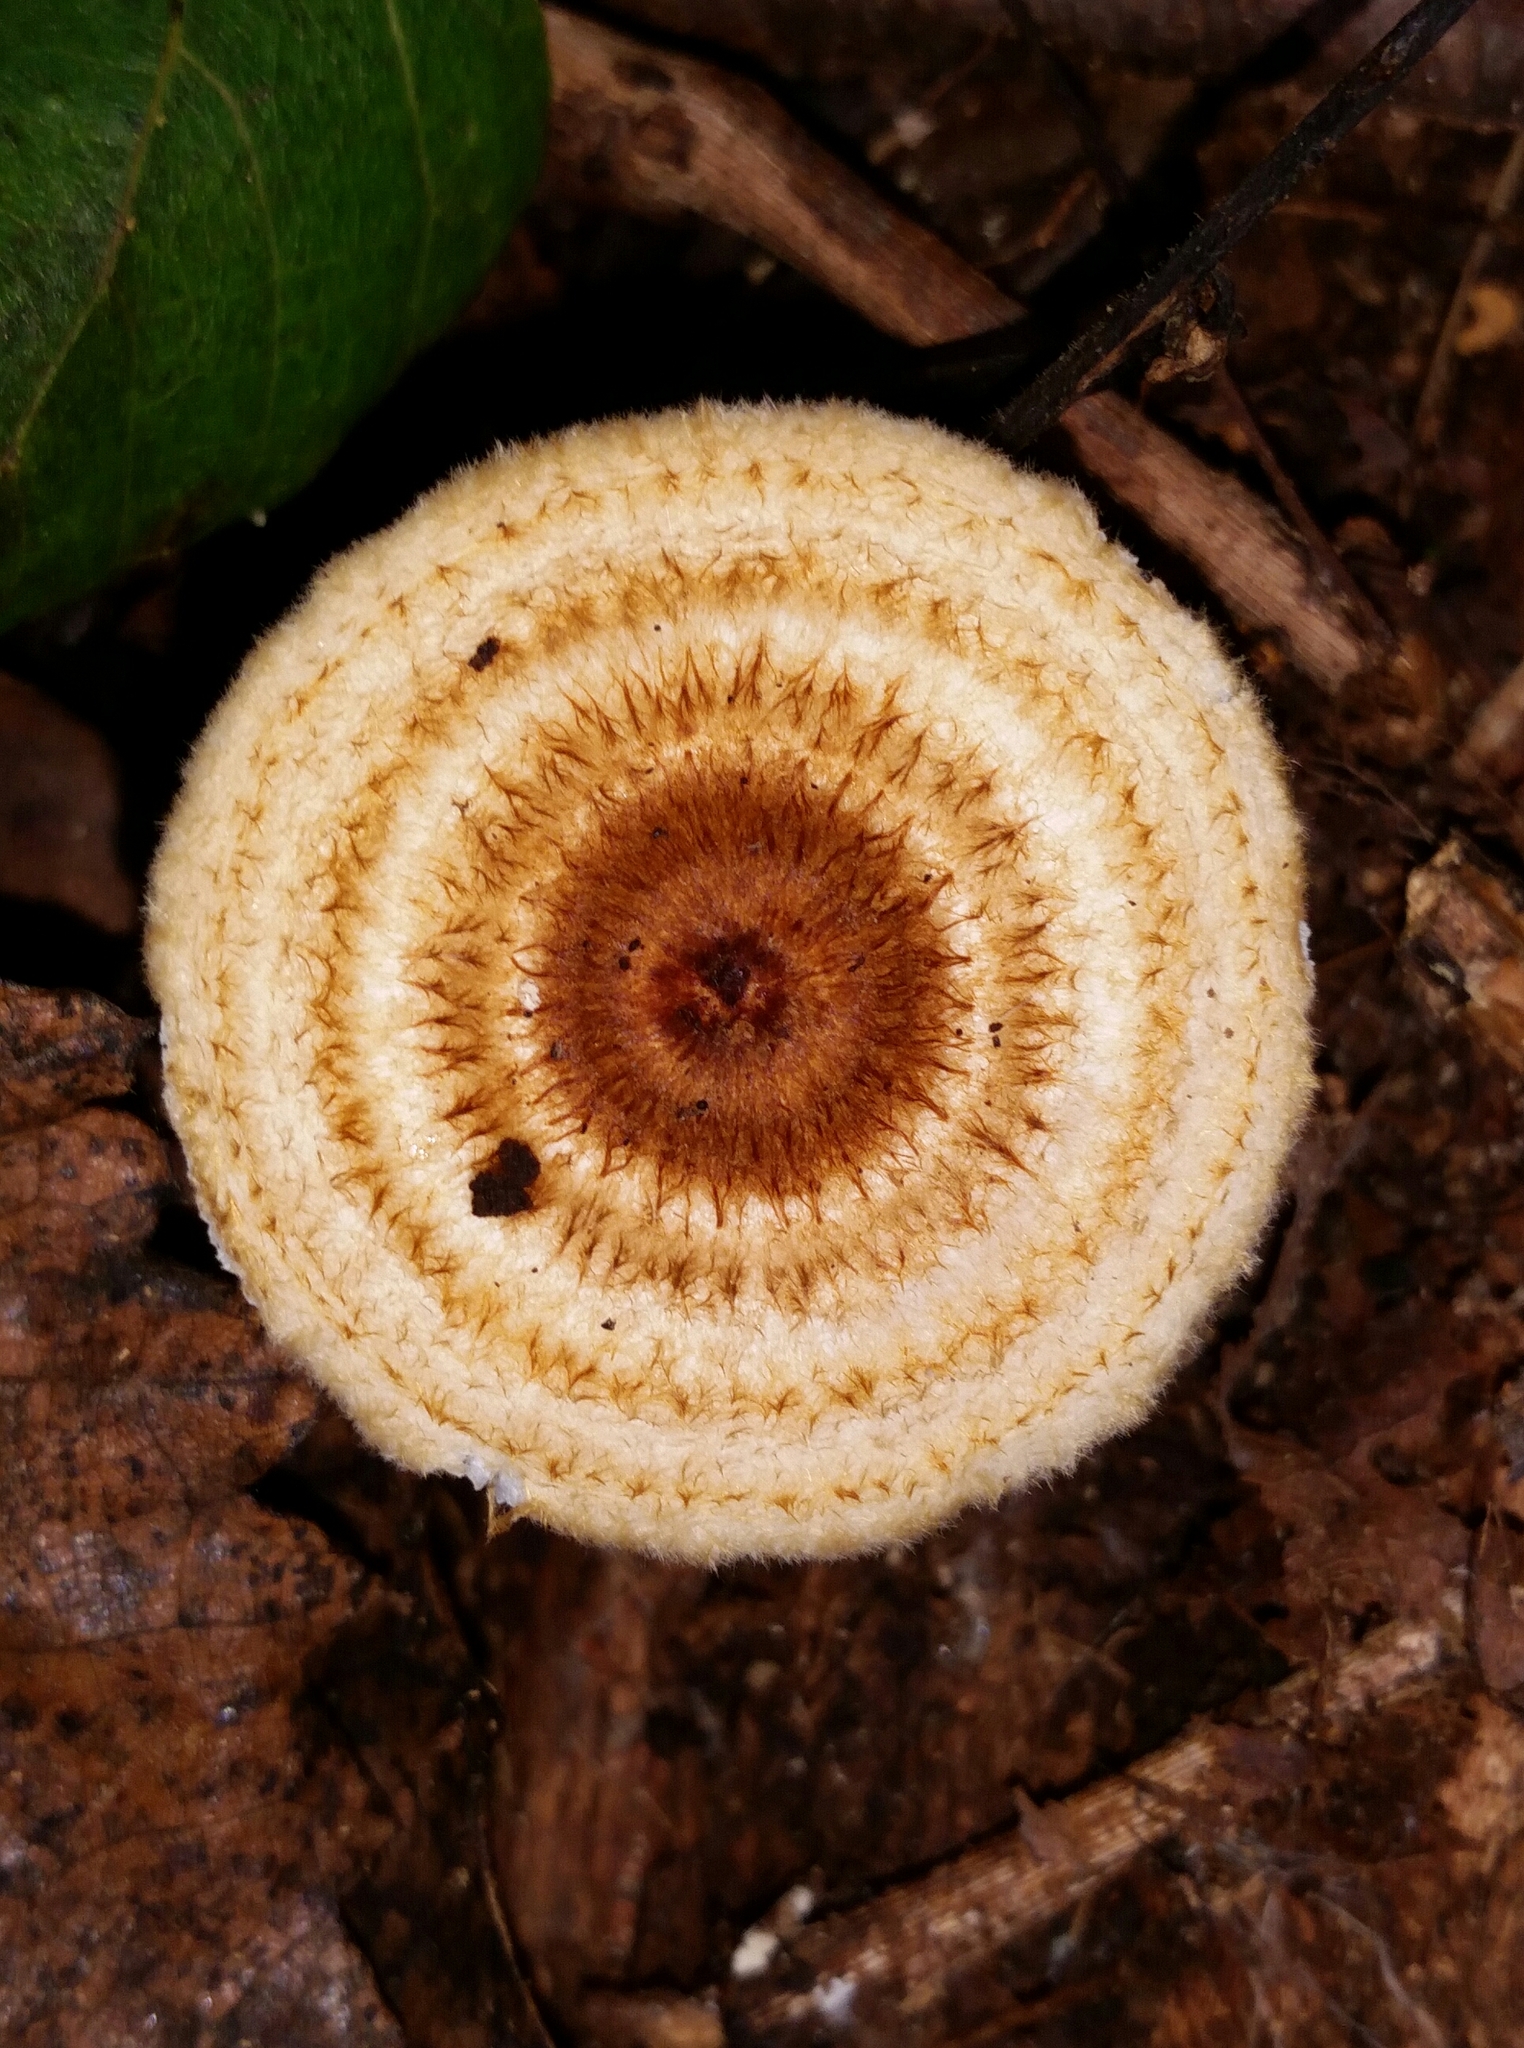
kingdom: Fungi
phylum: Basidiomycota
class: Agaricomycetes
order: Agaricales
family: Tricholomataceae
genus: Collybia
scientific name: Collybia zonata
